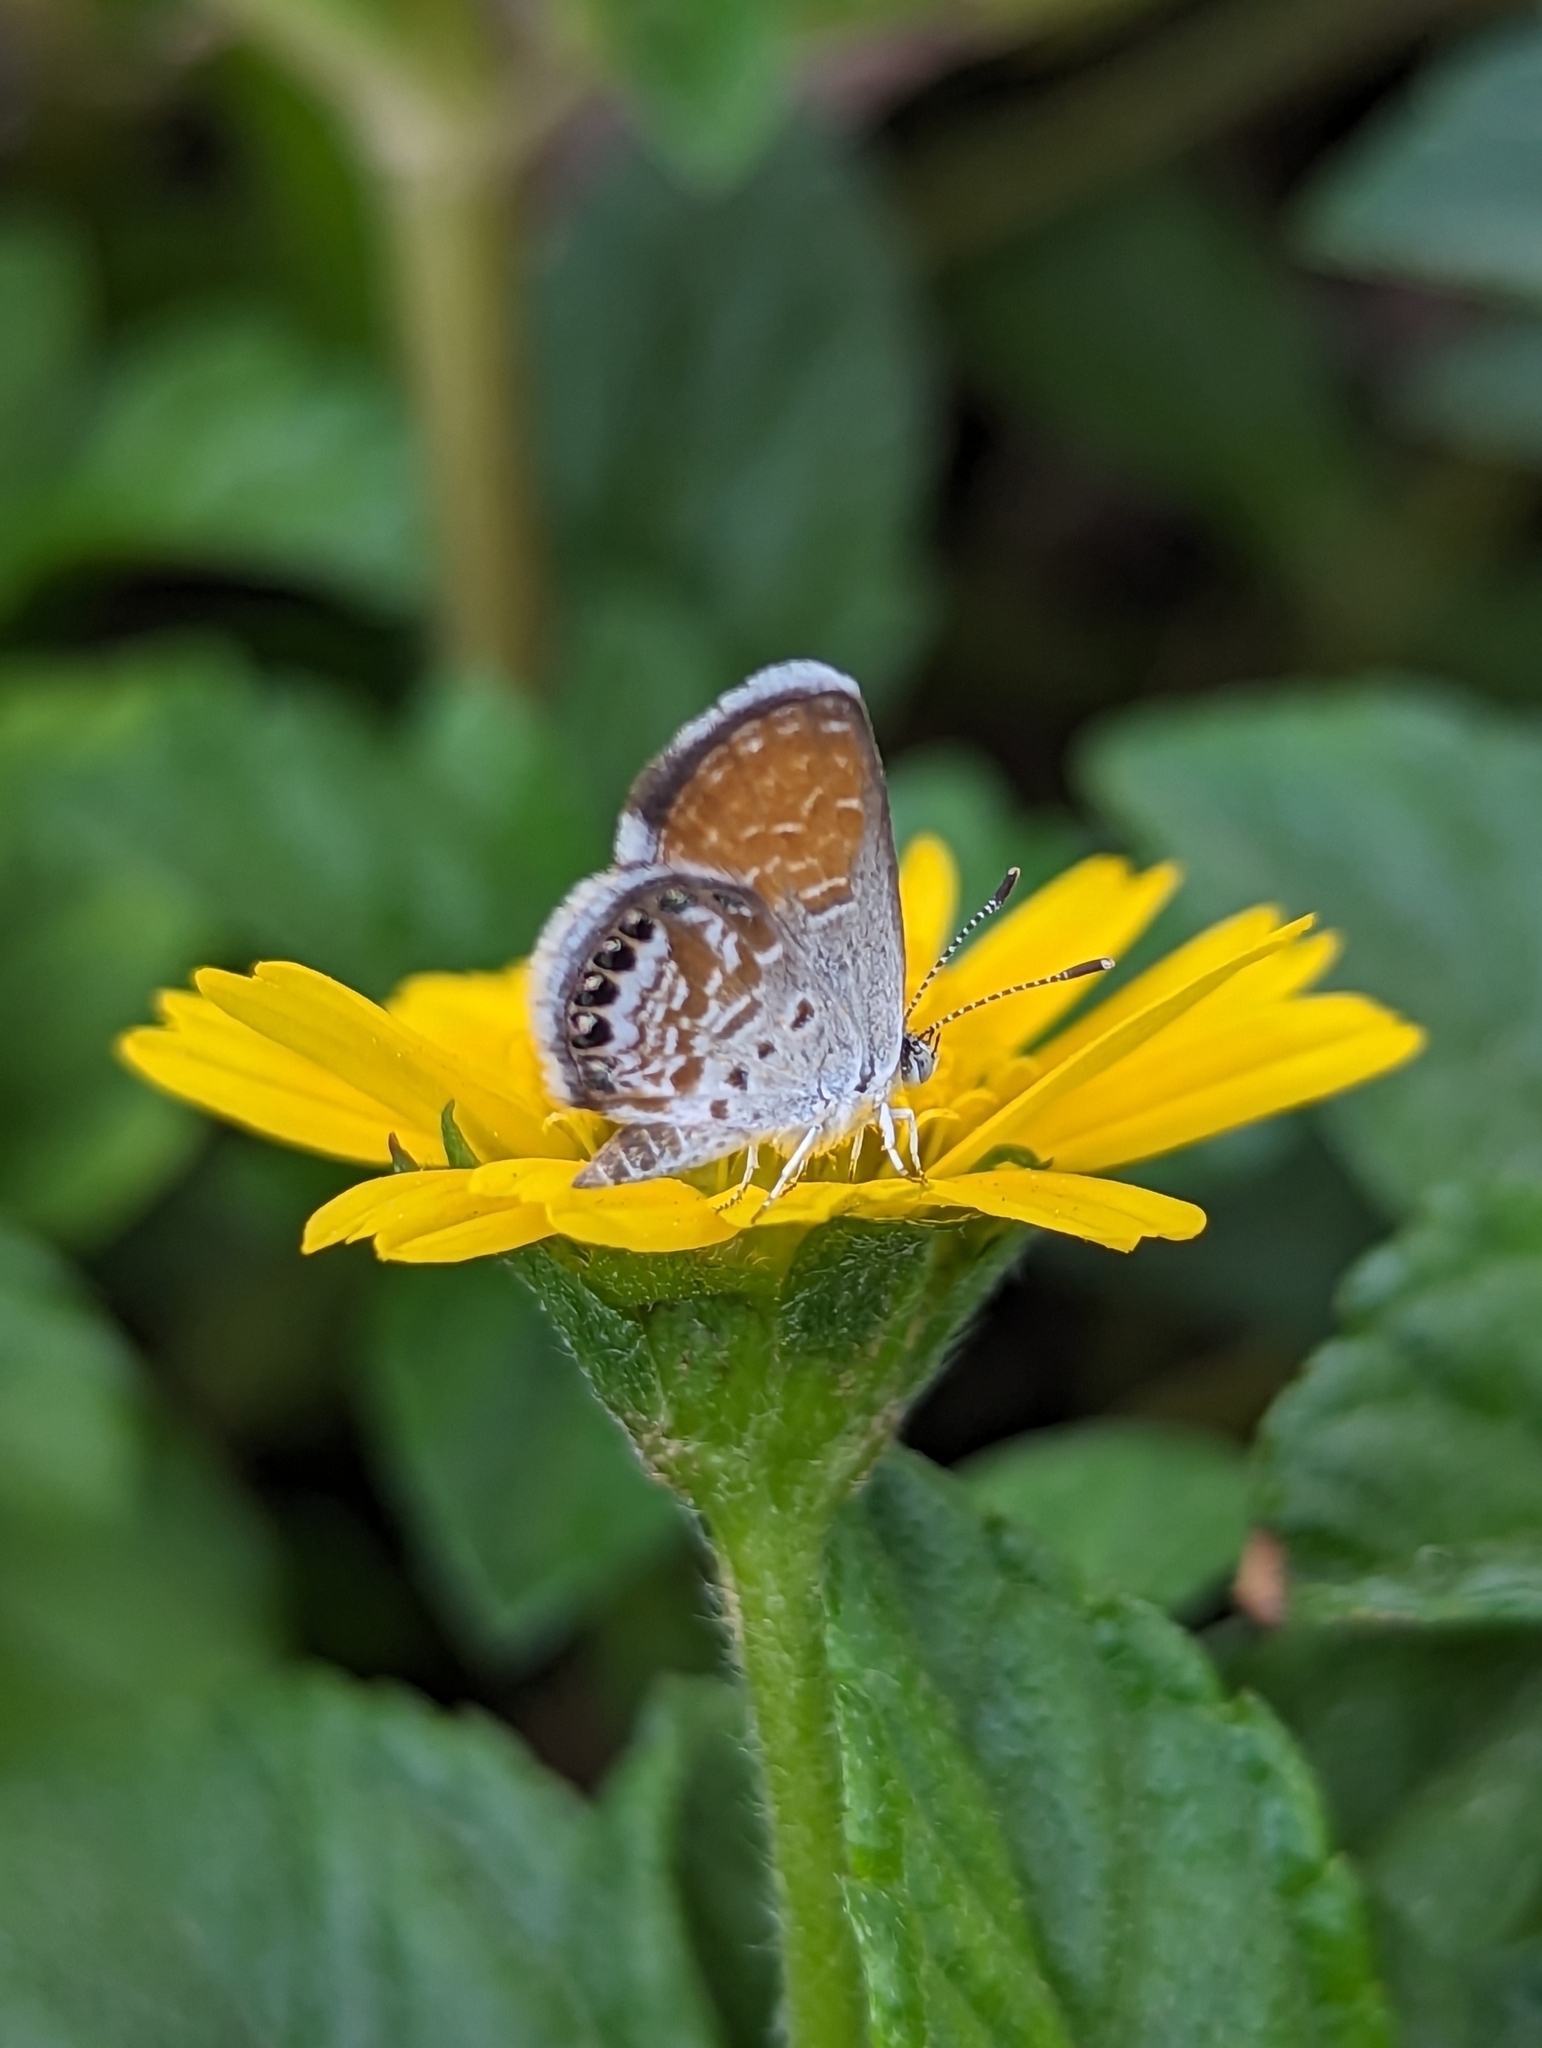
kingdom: Animalia
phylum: Arthropoda
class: Insecta
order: Lepidoptera
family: Lycaenidae
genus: Brephidium
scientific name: Brephidium exilis
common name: Pygmy blue
